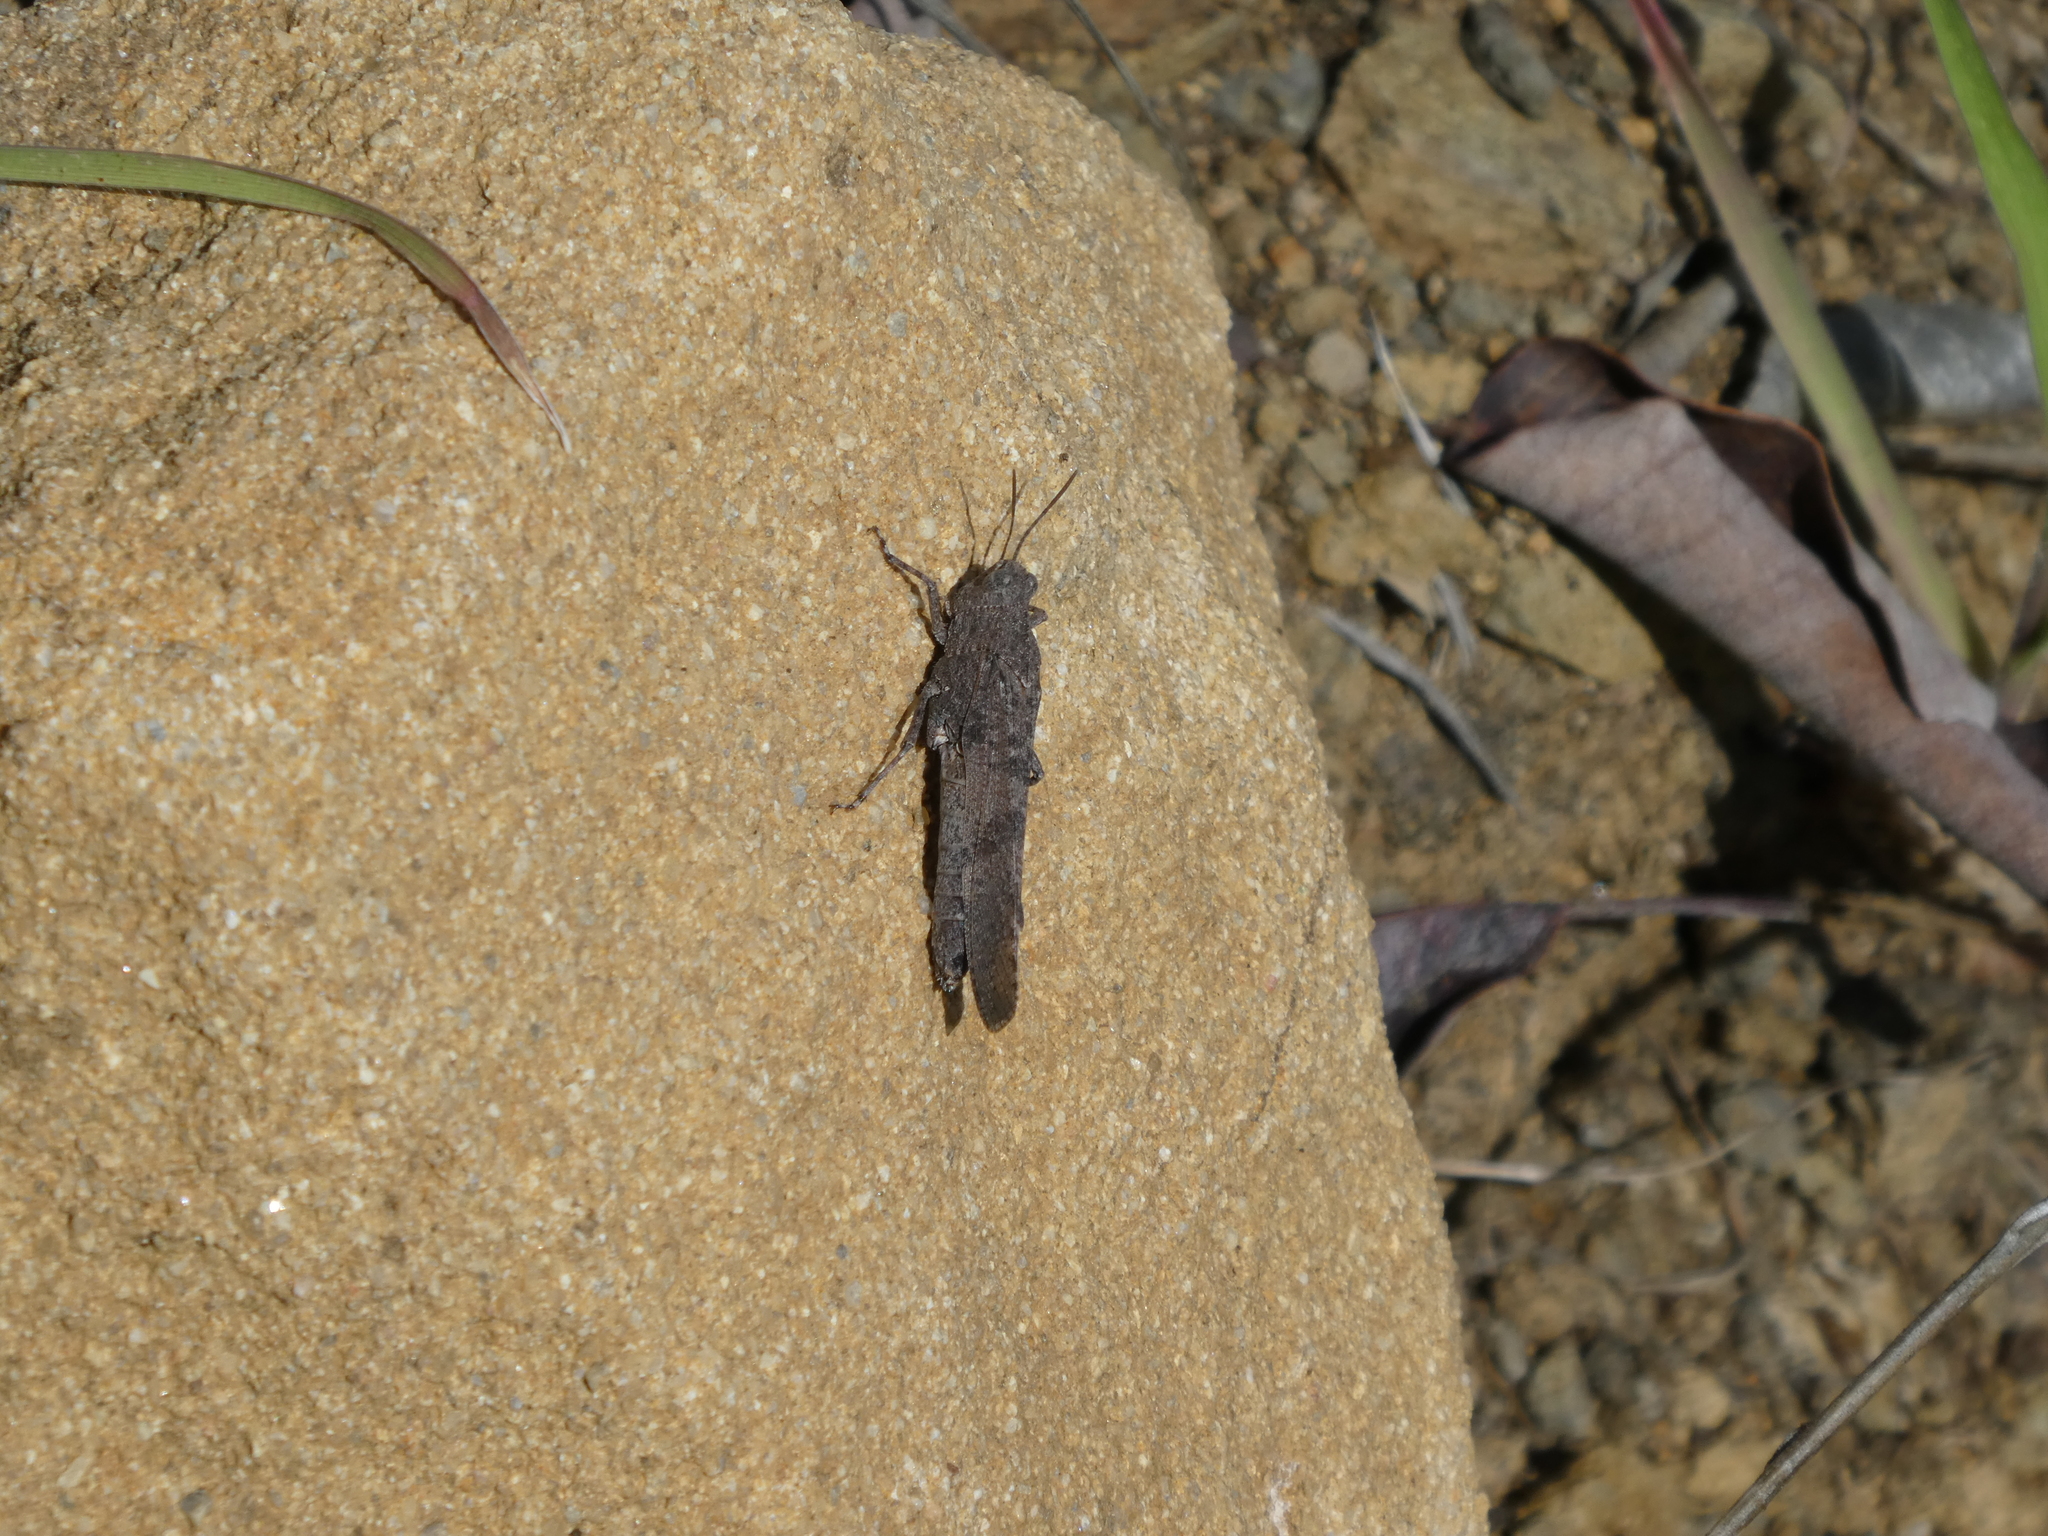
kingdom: Animalia
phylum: Arthropoda
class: Insecta
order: Orthoptera
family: Acrididae
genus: Lactista
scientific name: Lactista gibbosus
